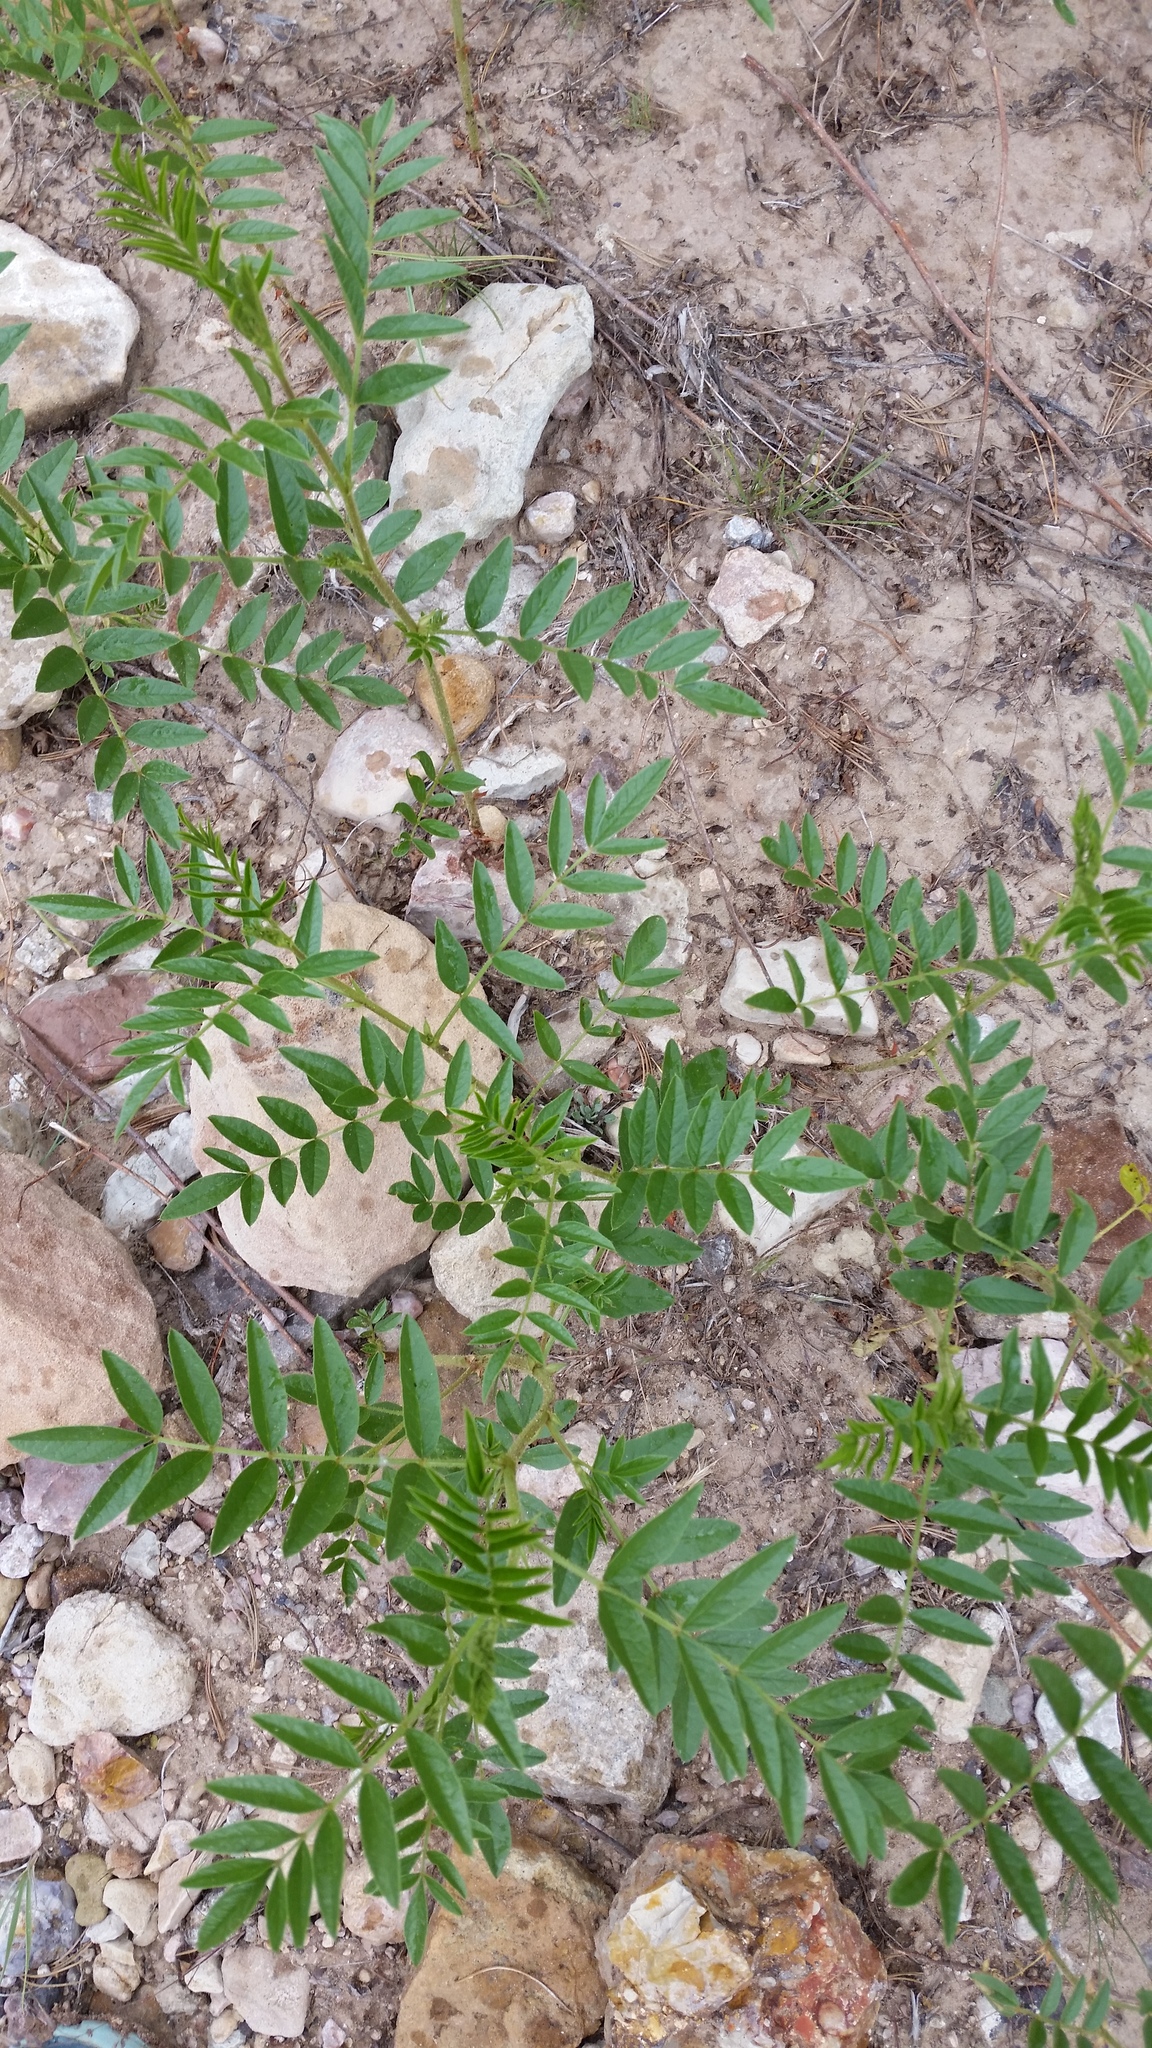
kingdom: Plantae
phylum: Tracheophyta
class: Magnoliopsida
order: Fabales
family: Fabaceae
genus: Glycyrrhiza
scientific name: Glycyrrhiza lepidota
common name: American liquorice
